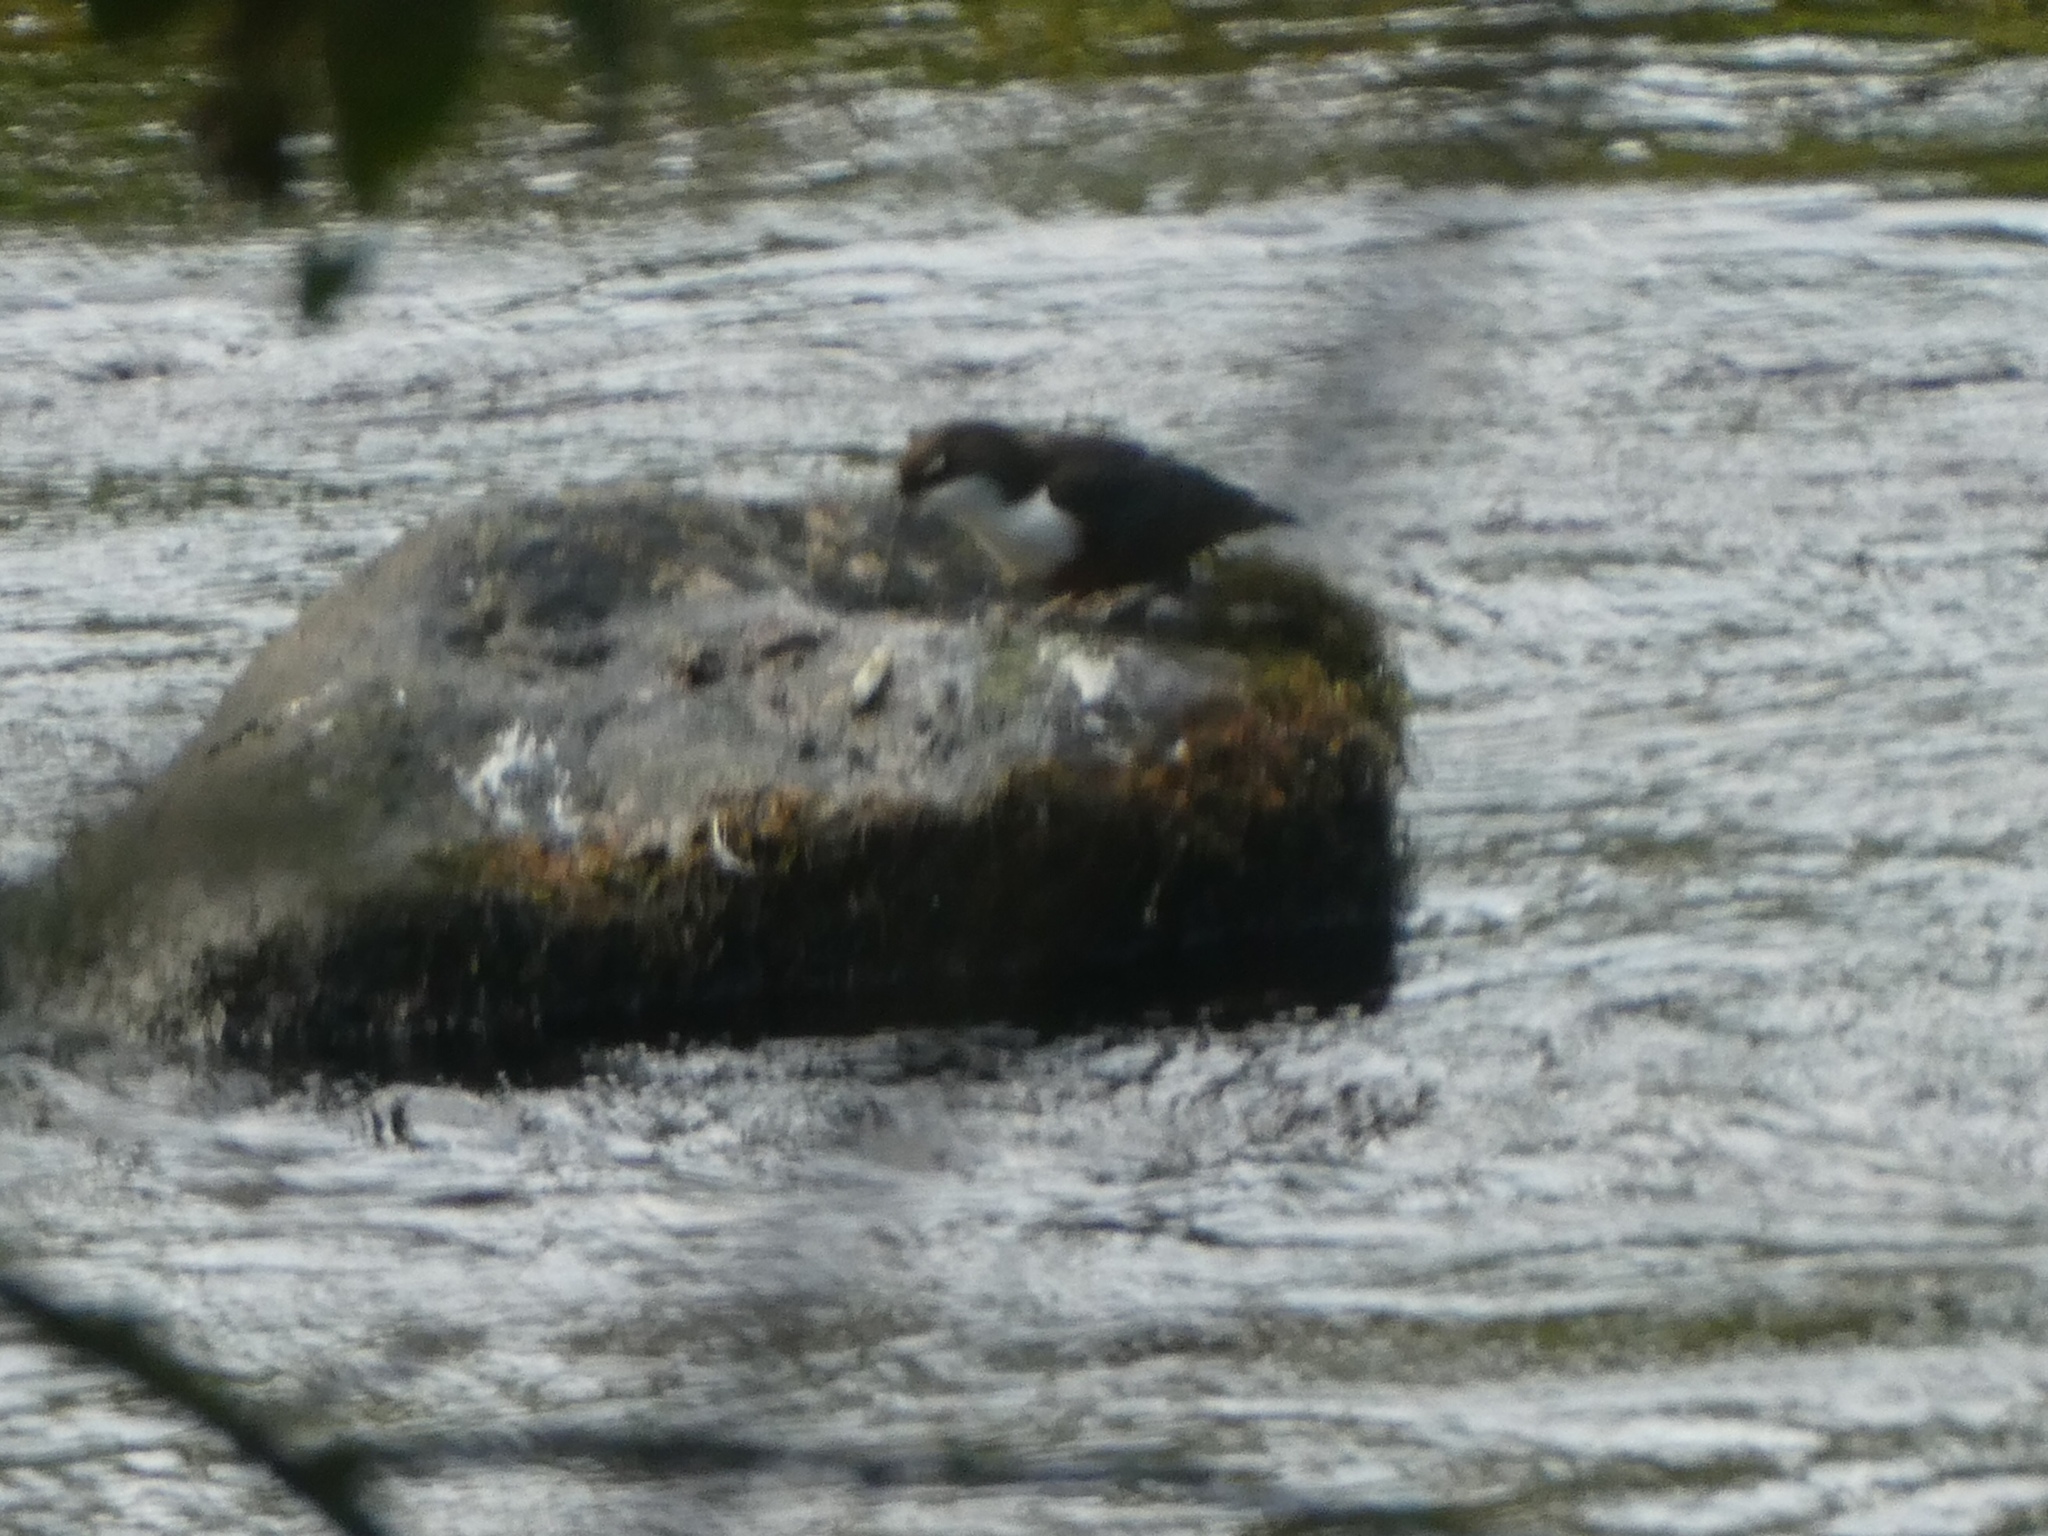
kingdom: Animalia
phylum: Chordata
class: Aves
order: Passeriformes
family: Cinclidae
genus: Cinclus
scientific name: Cinclus cinclus
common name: White-throated dipper
